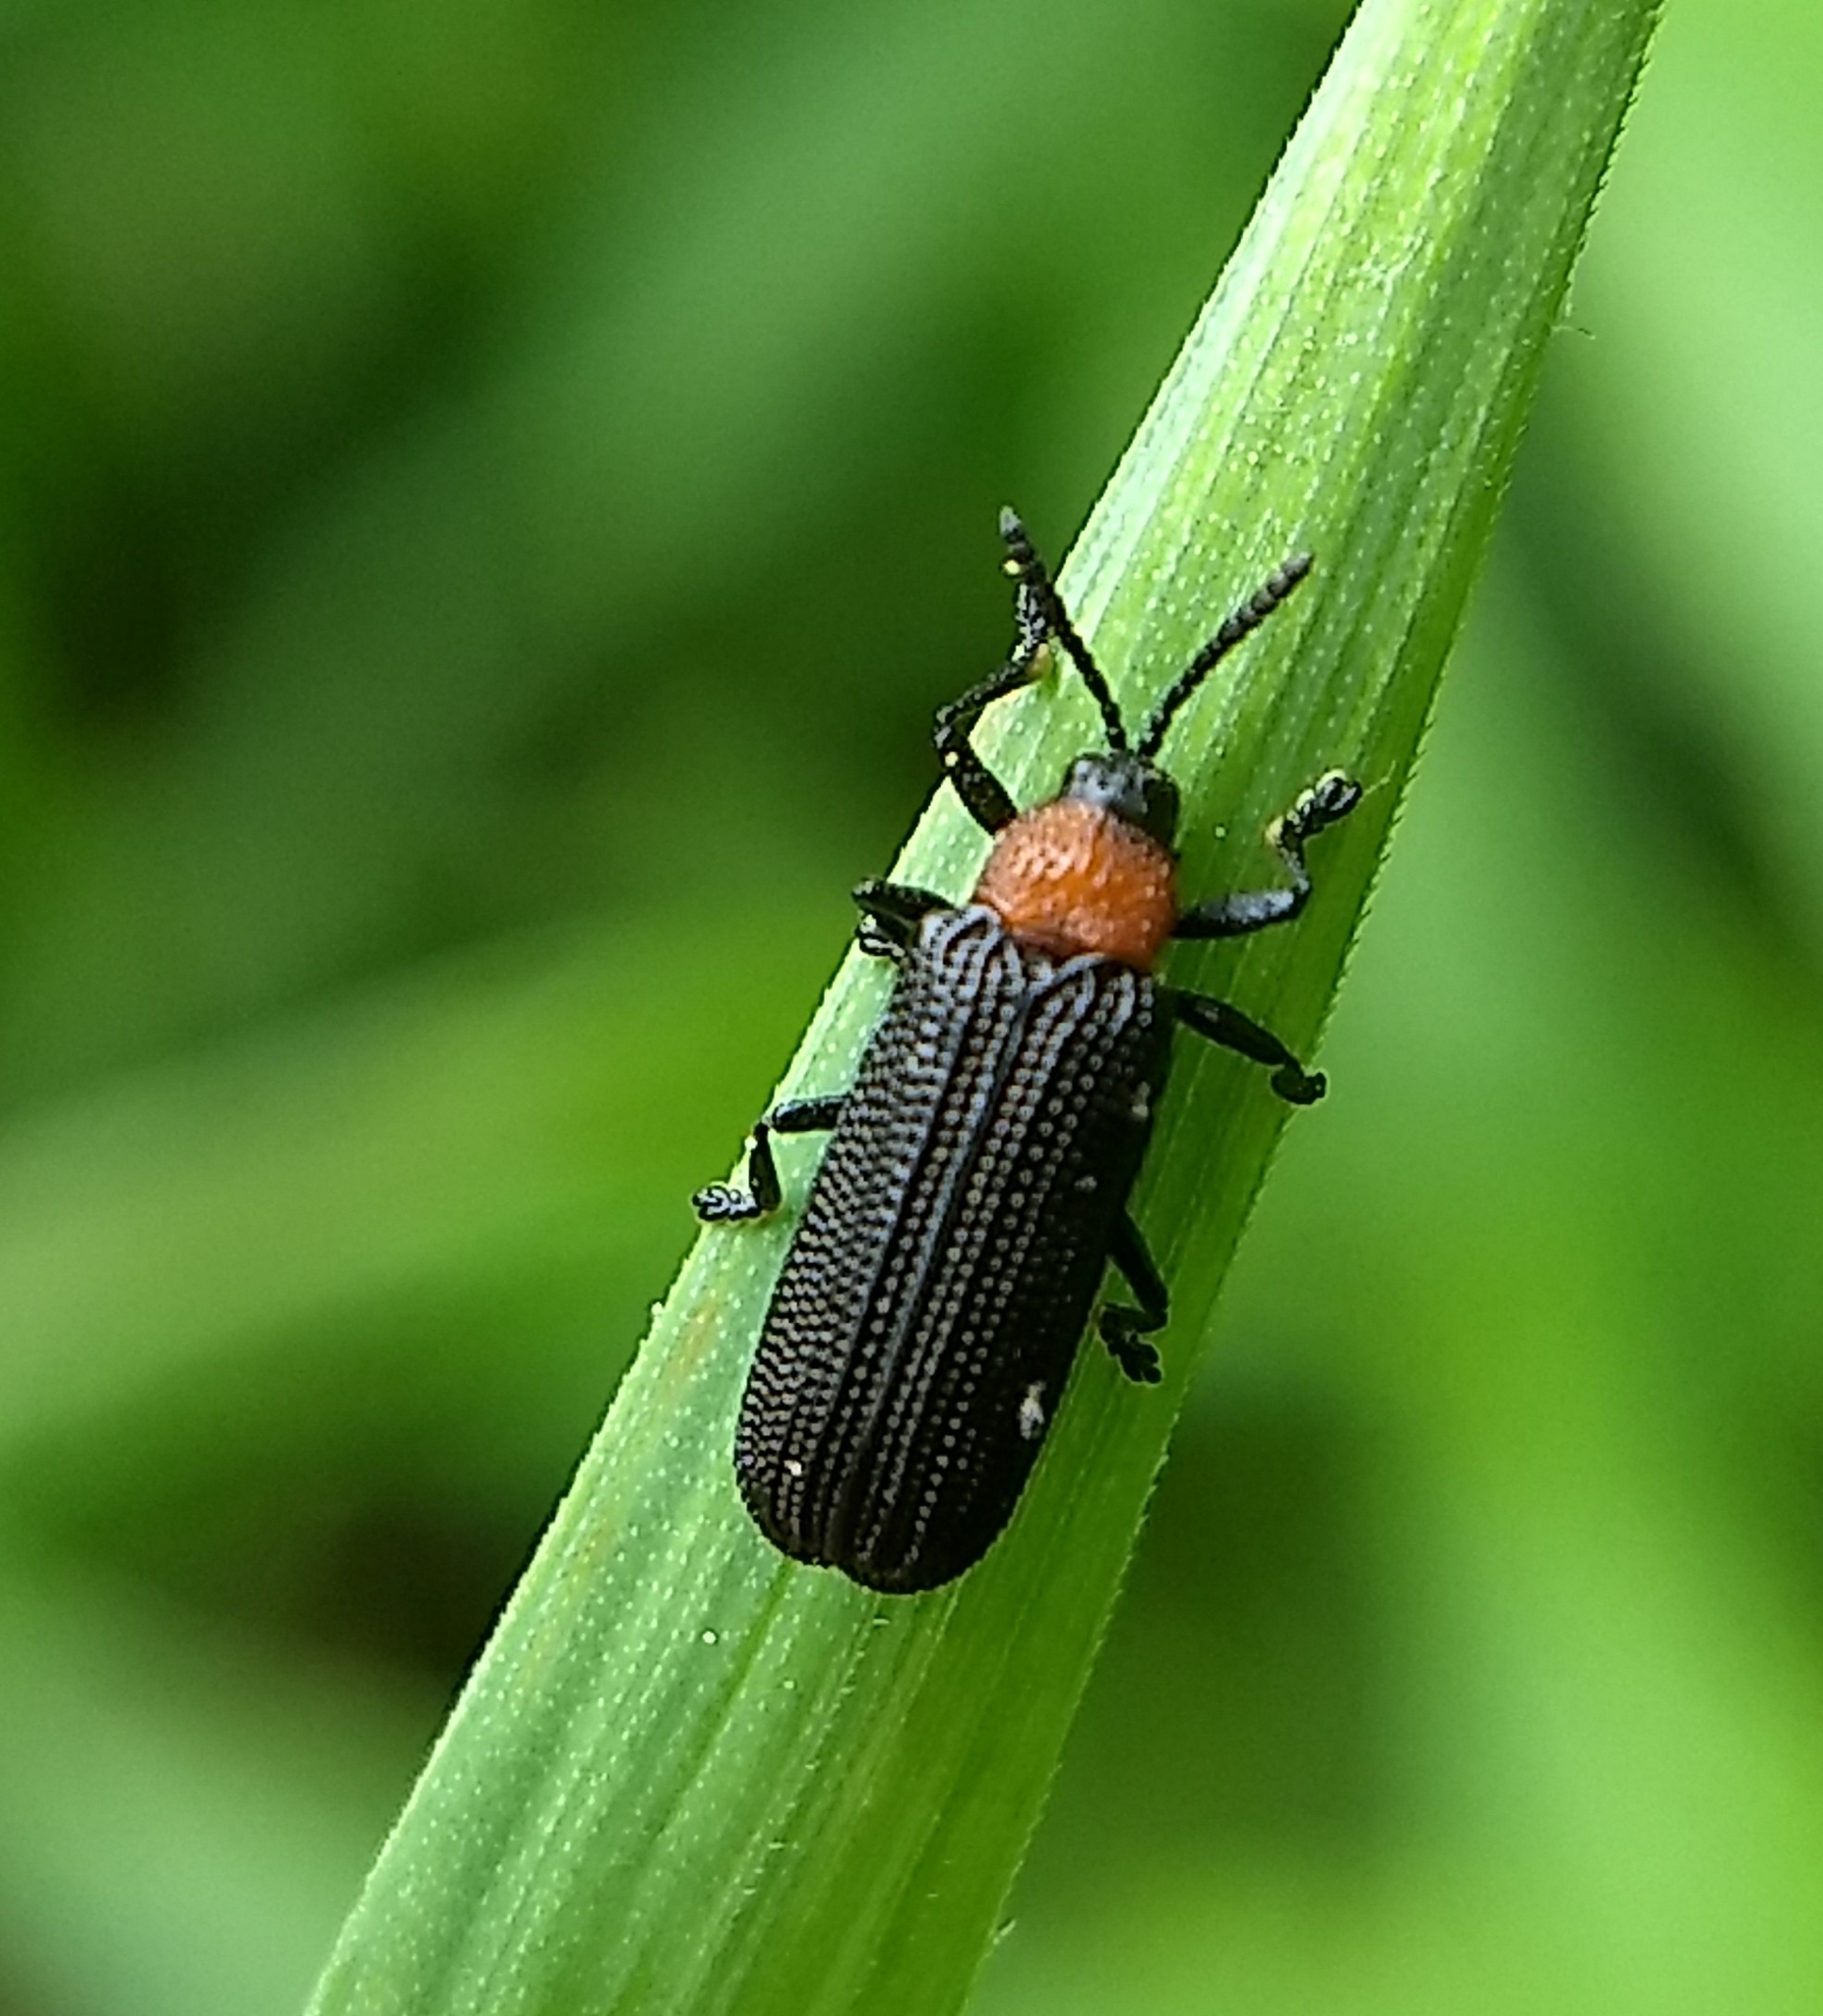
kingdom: Animalia
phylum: Arthropoda
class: Insecta
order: Coleoptera
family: Chrysomelidae
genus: Chalepus
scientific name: Chalepus walshii
